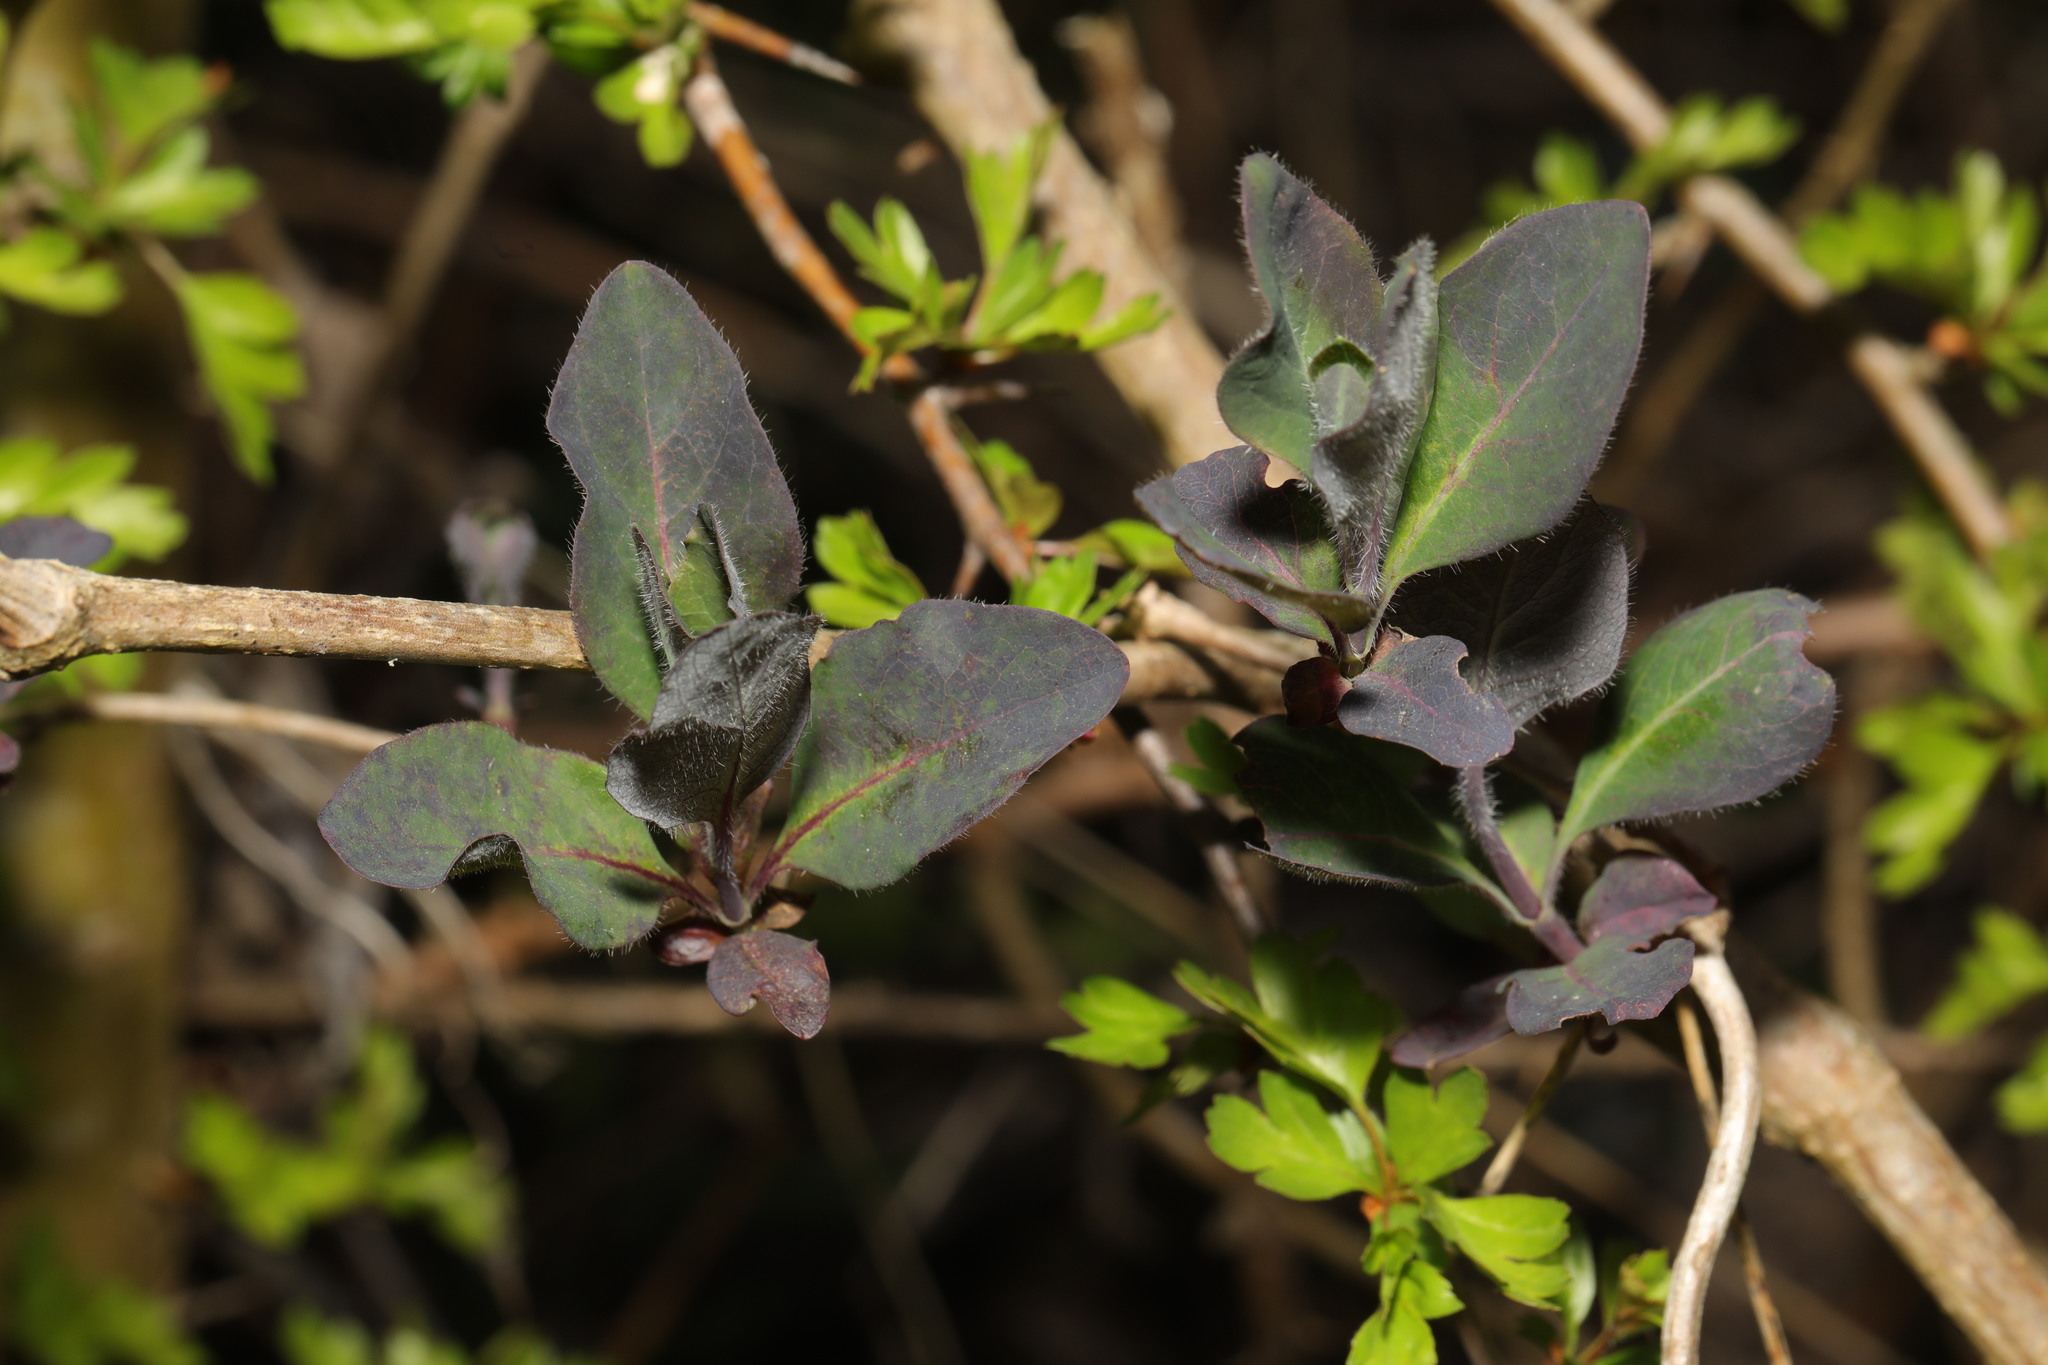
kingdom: Plantae
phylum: Tracheophyta
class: Magnoliopsida
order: Dipsacales
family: Caprifoliaceae
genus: Lonicera
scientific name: Lonicera periclymenum
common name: European honeysuckle
